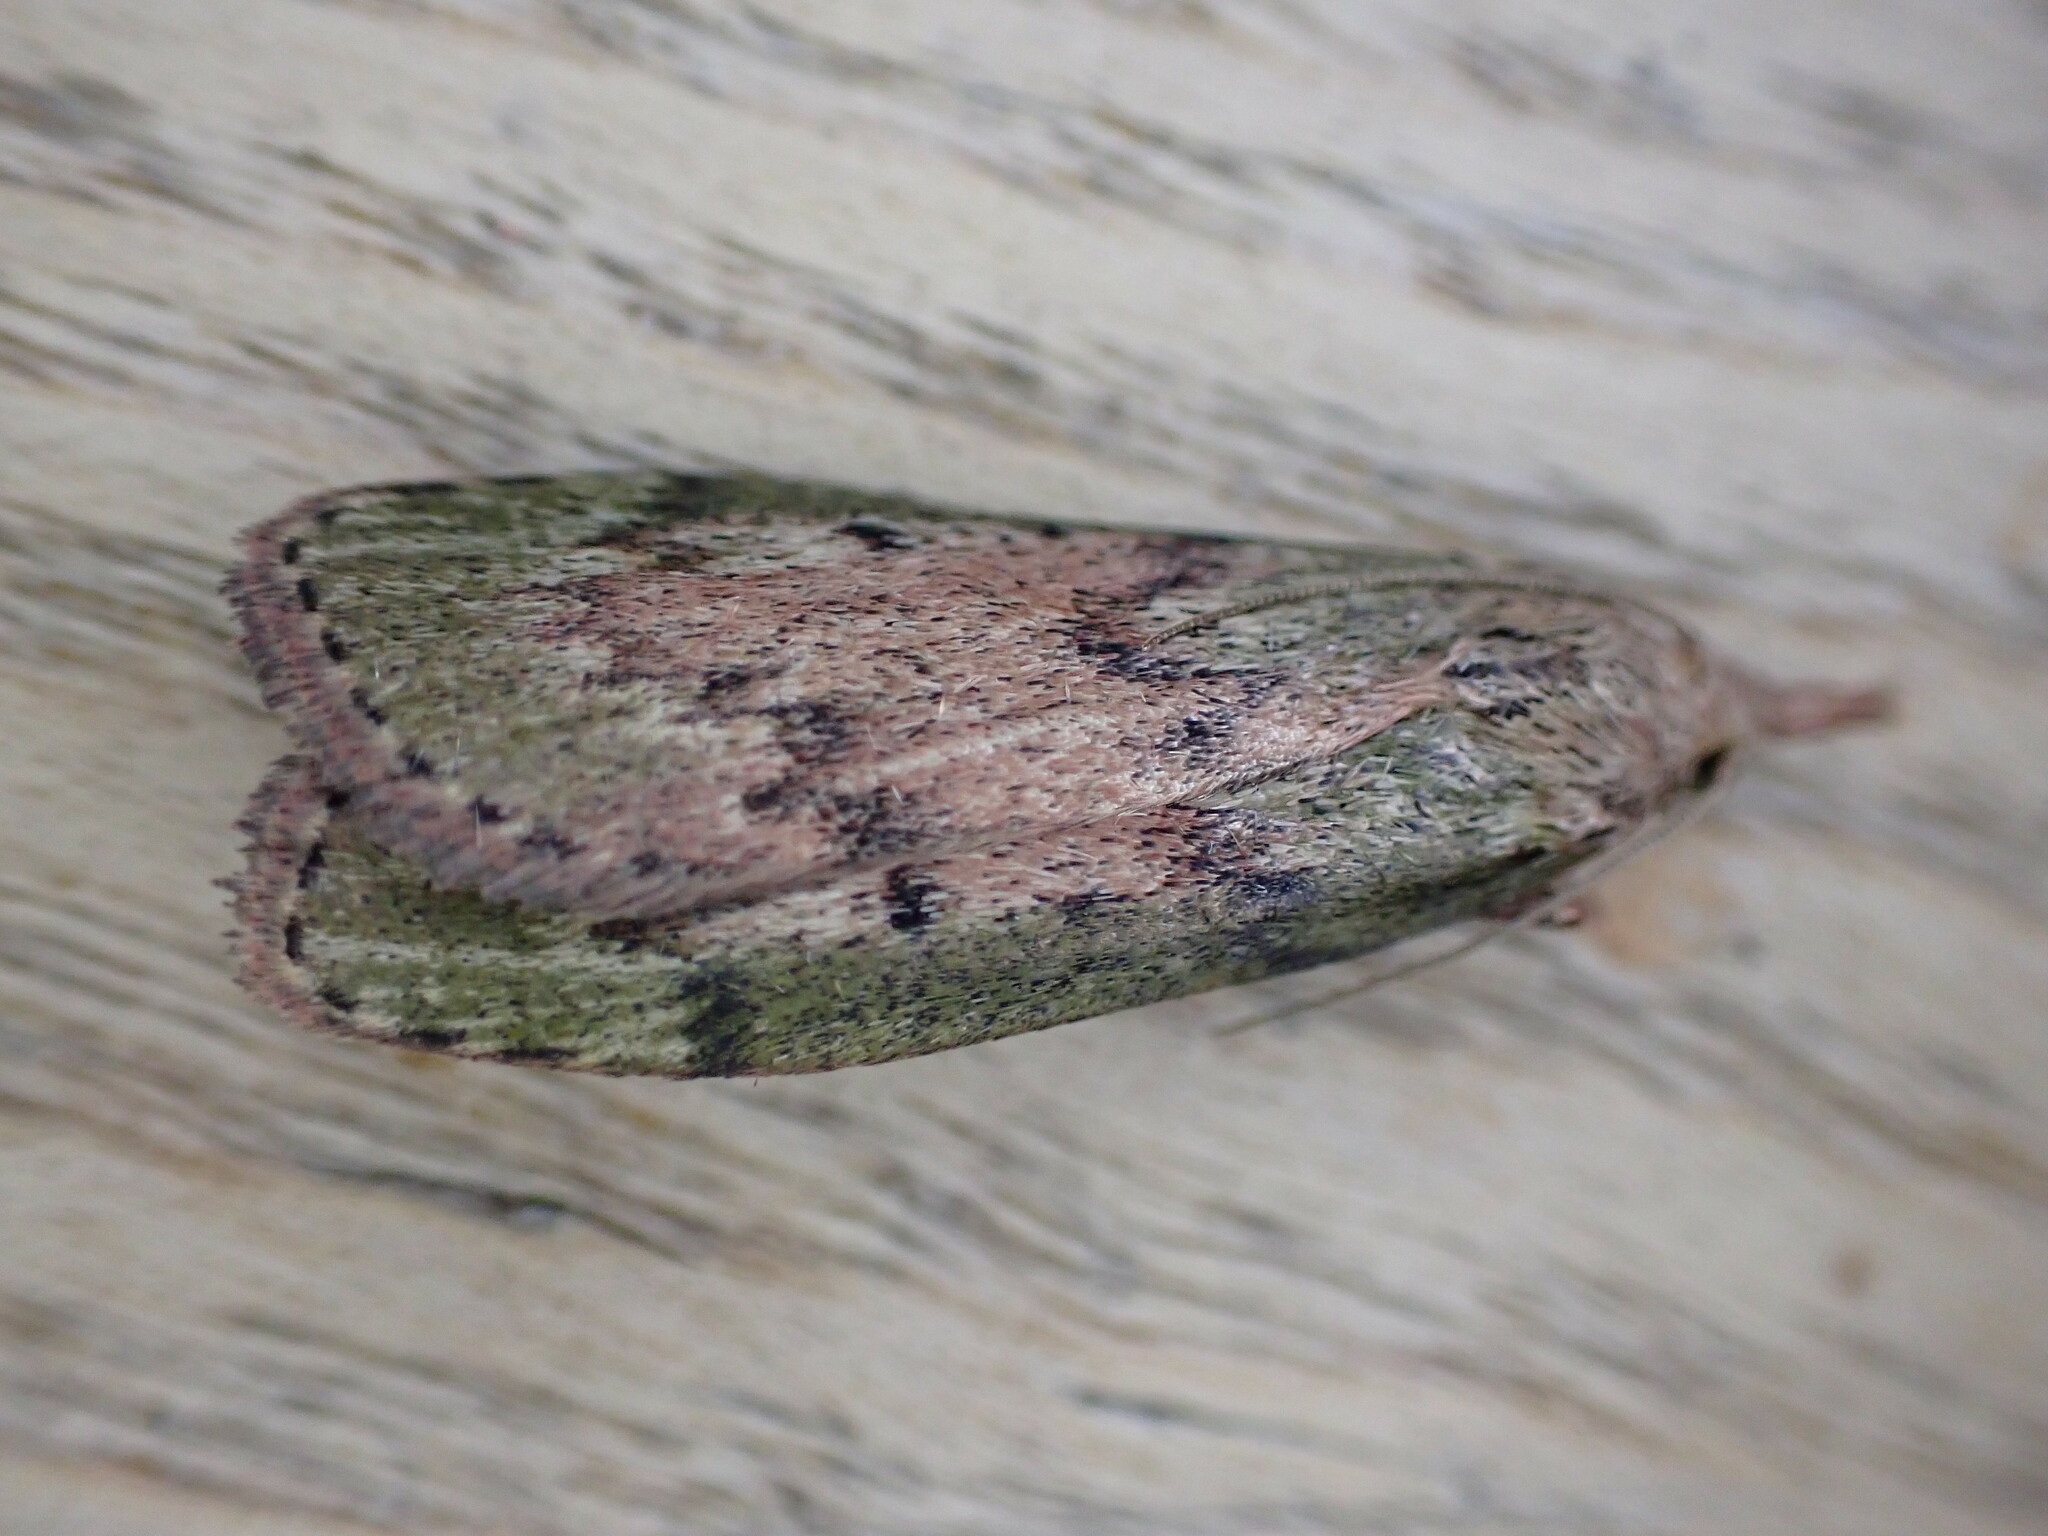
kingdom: Animalia
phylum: Arthropoda
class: Insecta
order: Lepidoptera
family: Pyralidae
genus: Aphomia
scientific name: Aphomia sociella
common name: Bee moth
